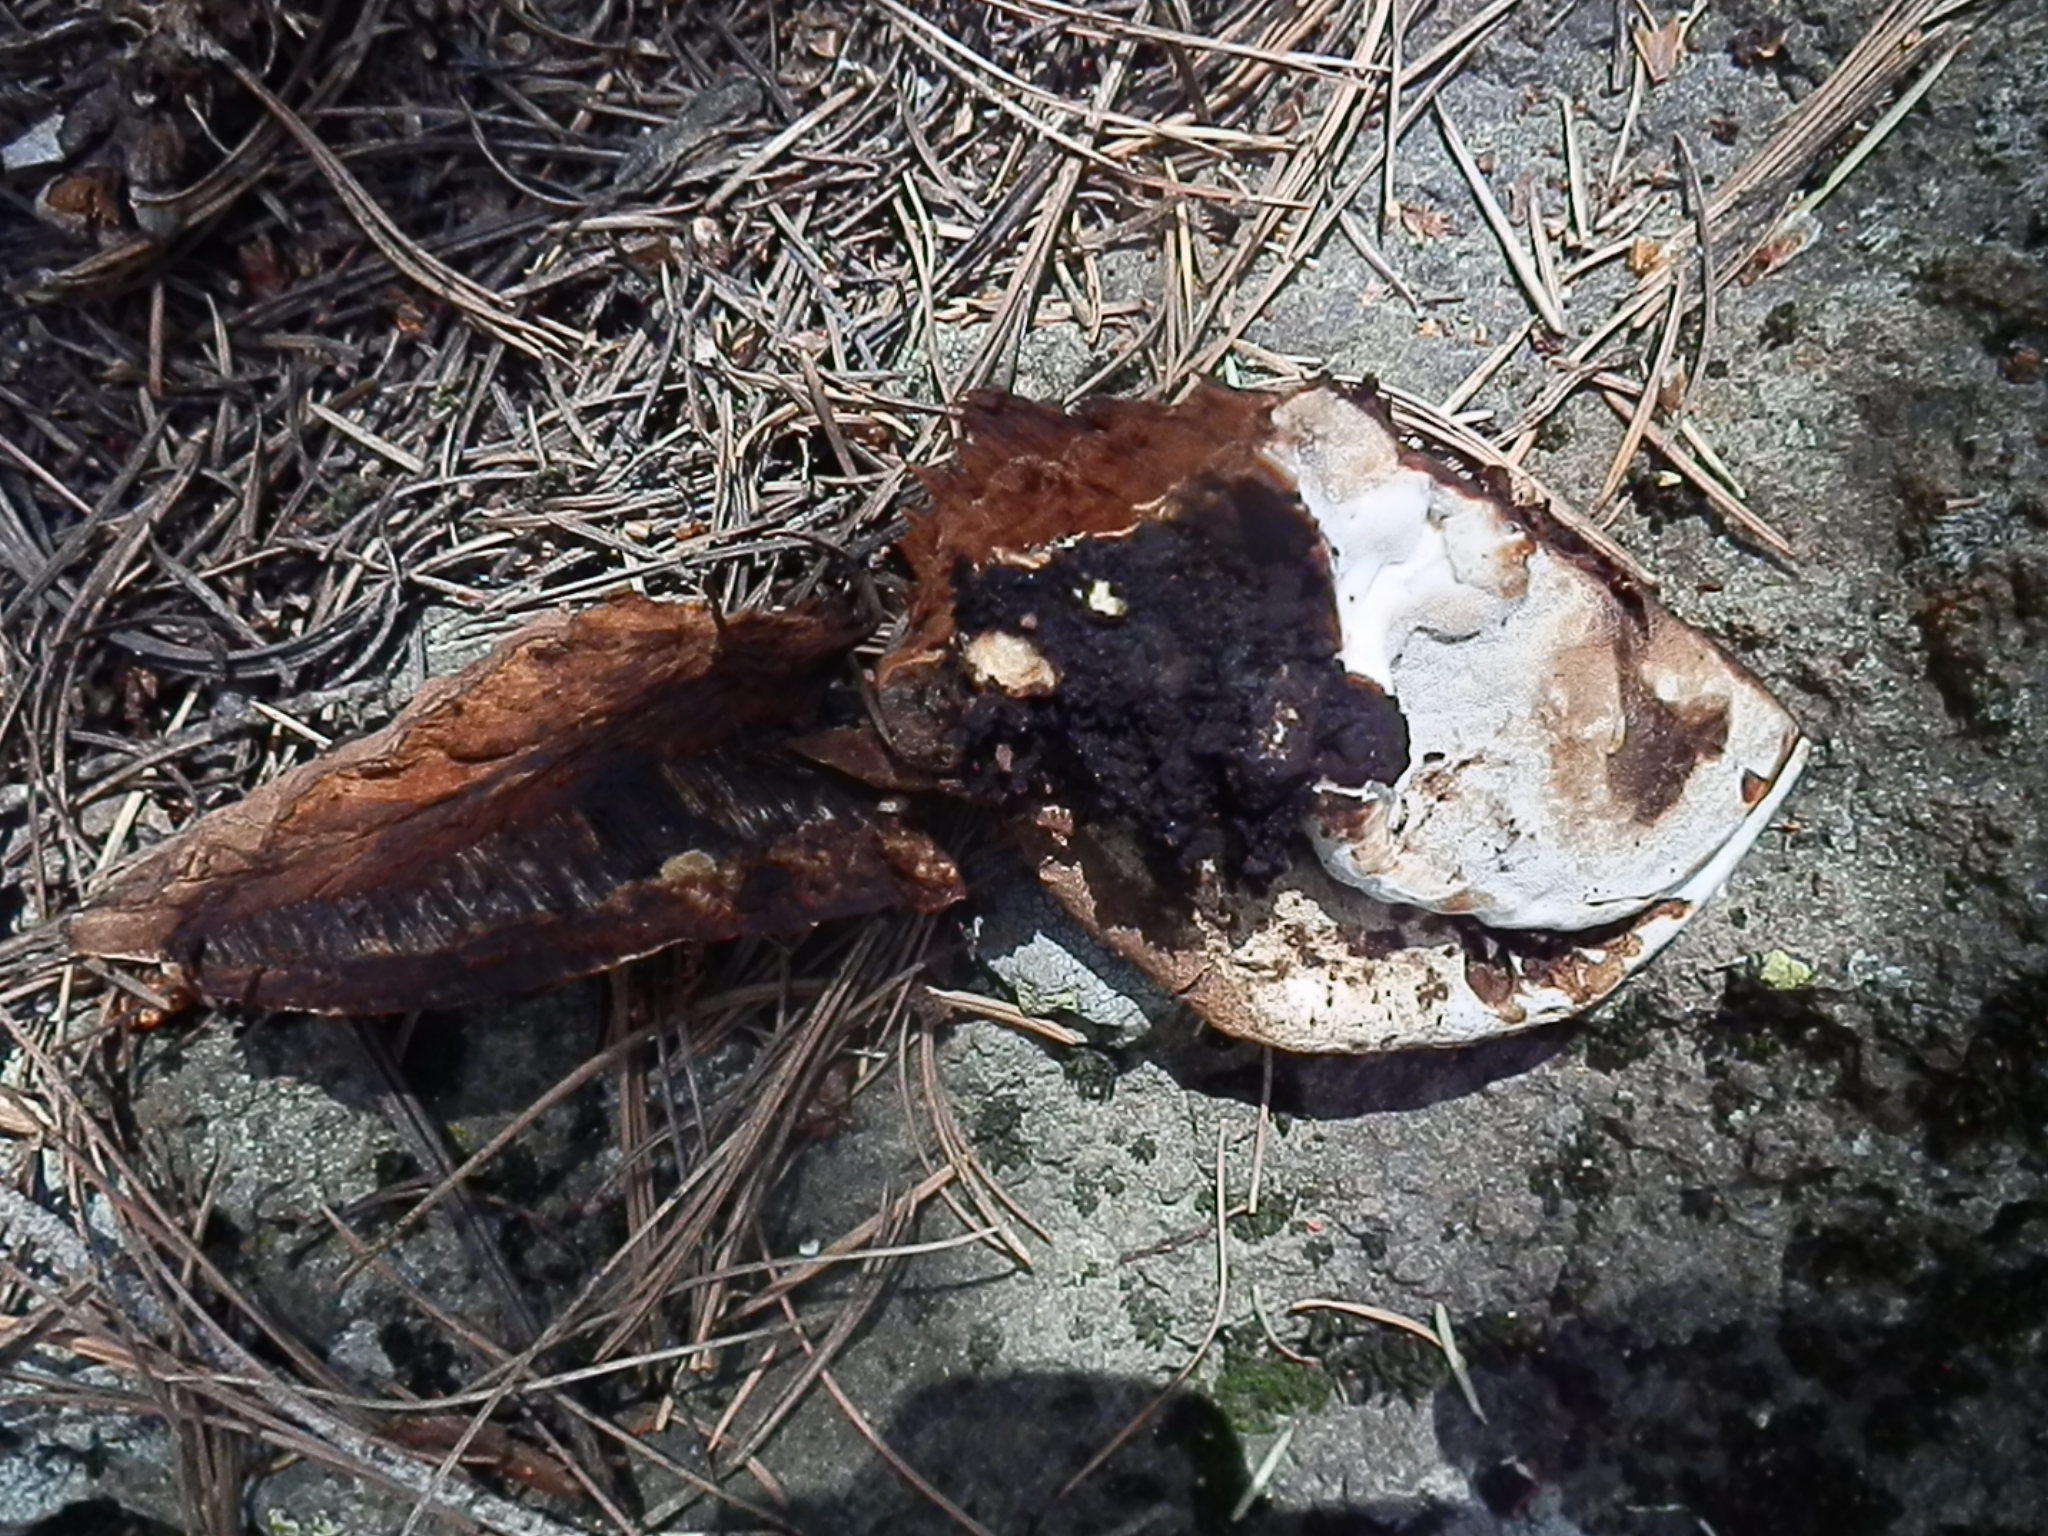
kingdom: Fungi
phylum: Basidiomycota
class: Agaricomycetes
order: Polyporales
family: Polyporaceae
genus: Ganoderma
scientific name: Ganoderma applanatum
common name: Artist's bracket
